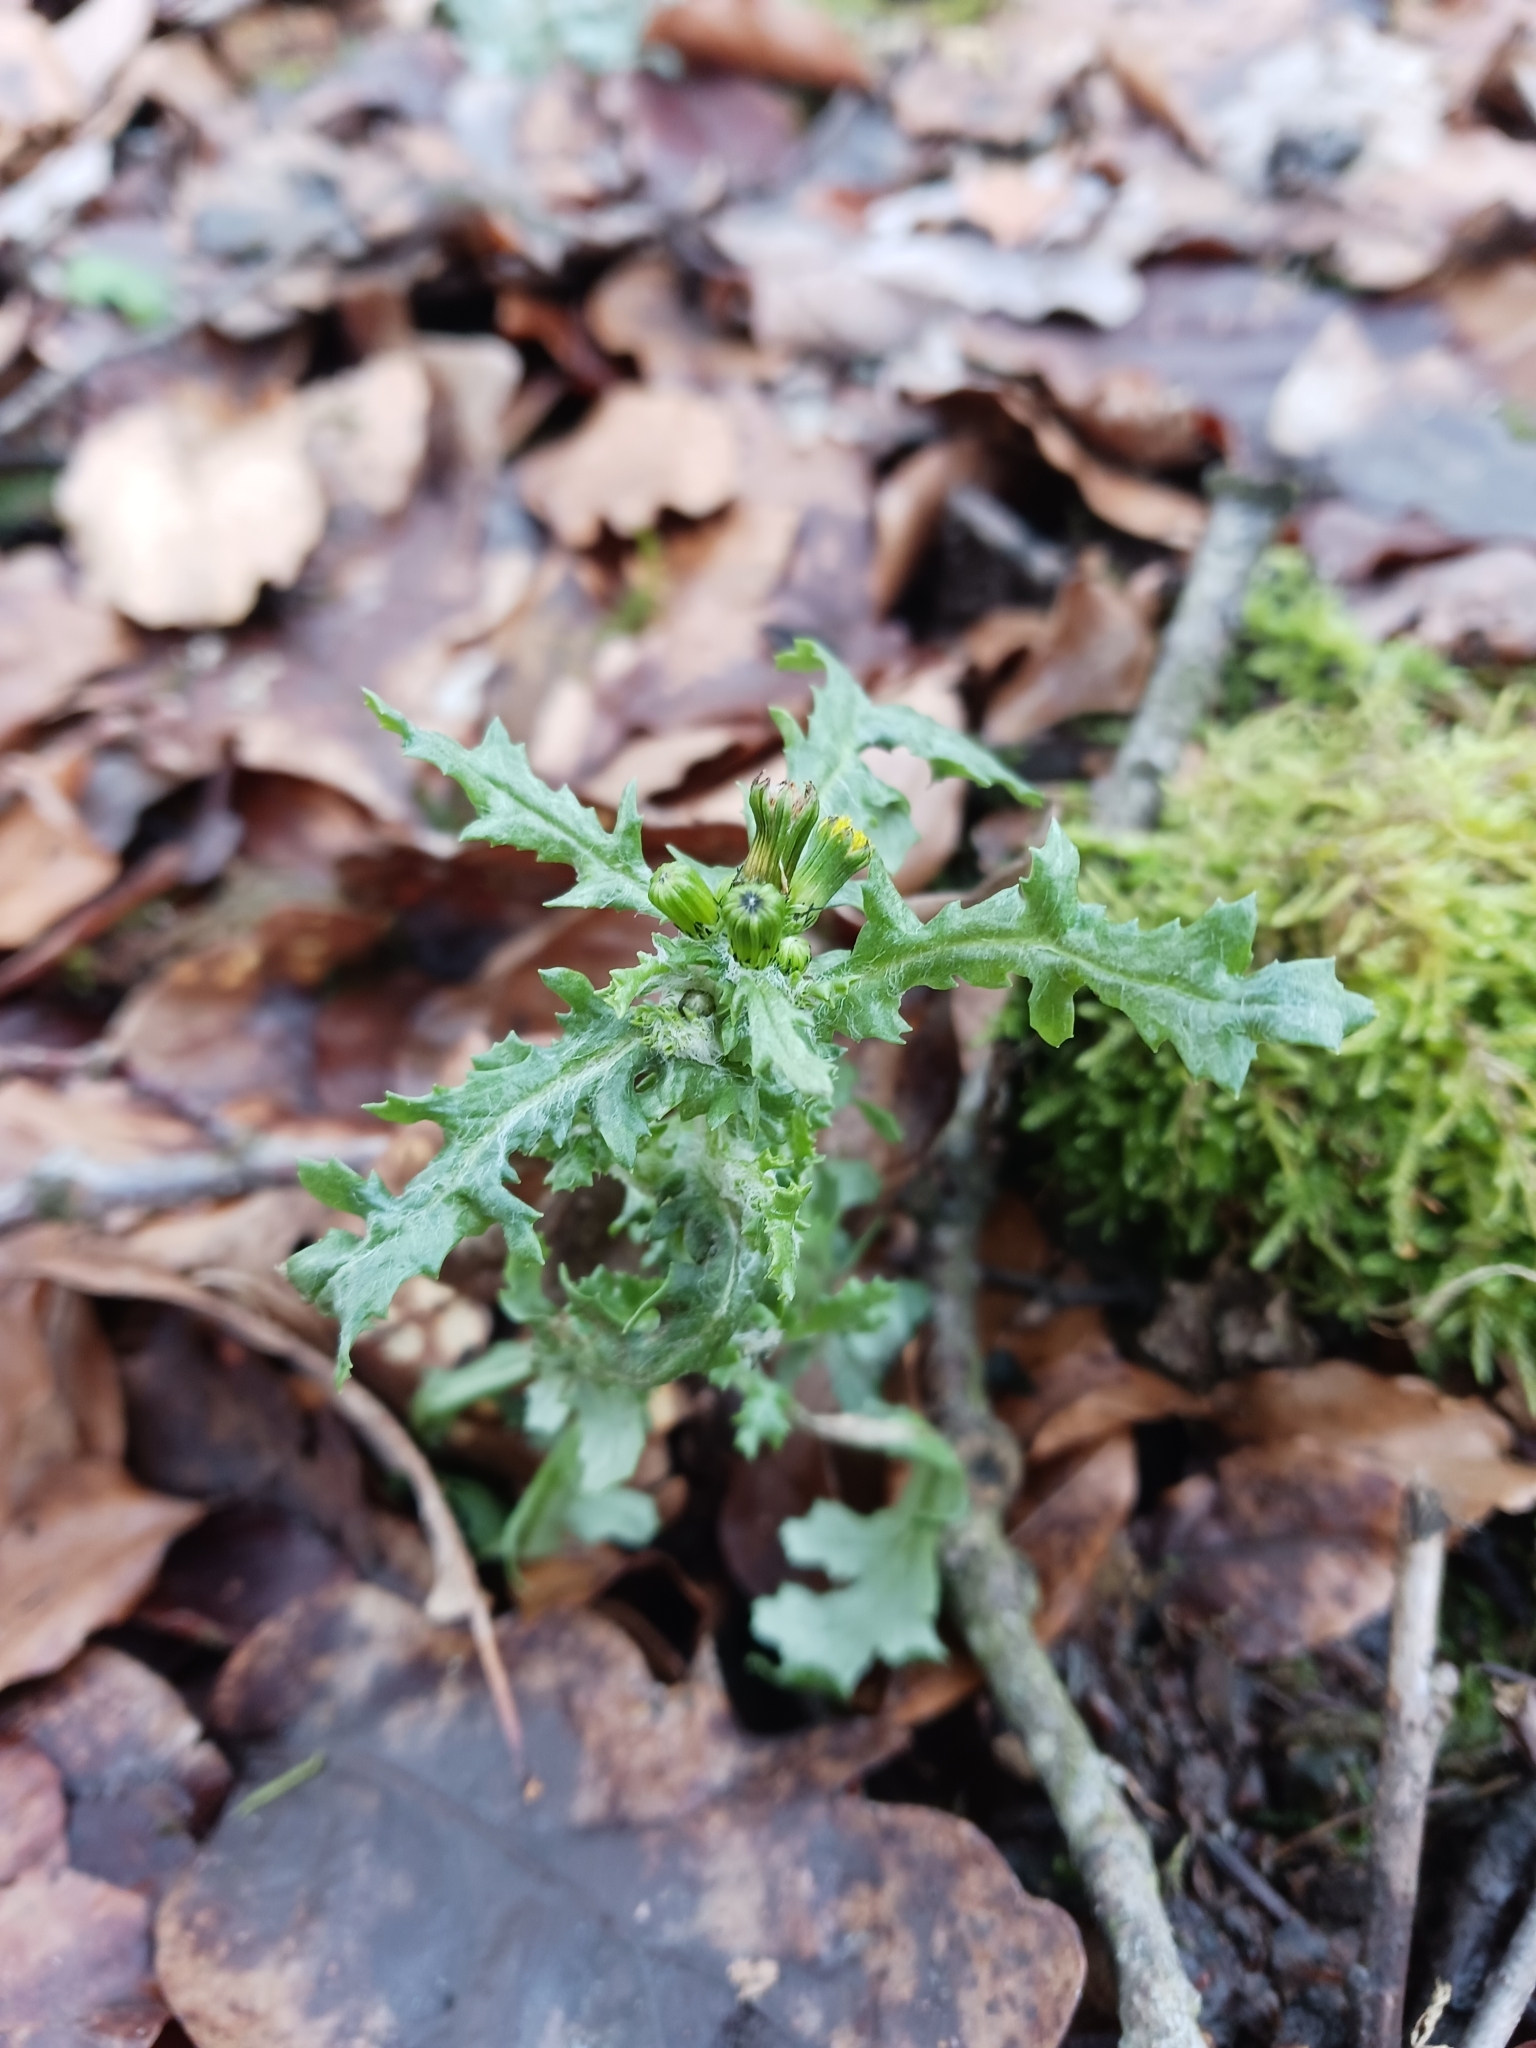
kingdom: Plantae
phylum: Tracheophyta
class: Magnoliopsida
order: Asterales
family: Asteraceae
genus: Senecio
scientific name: Senecio vulgaris
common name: Old-man-in-the-spring
